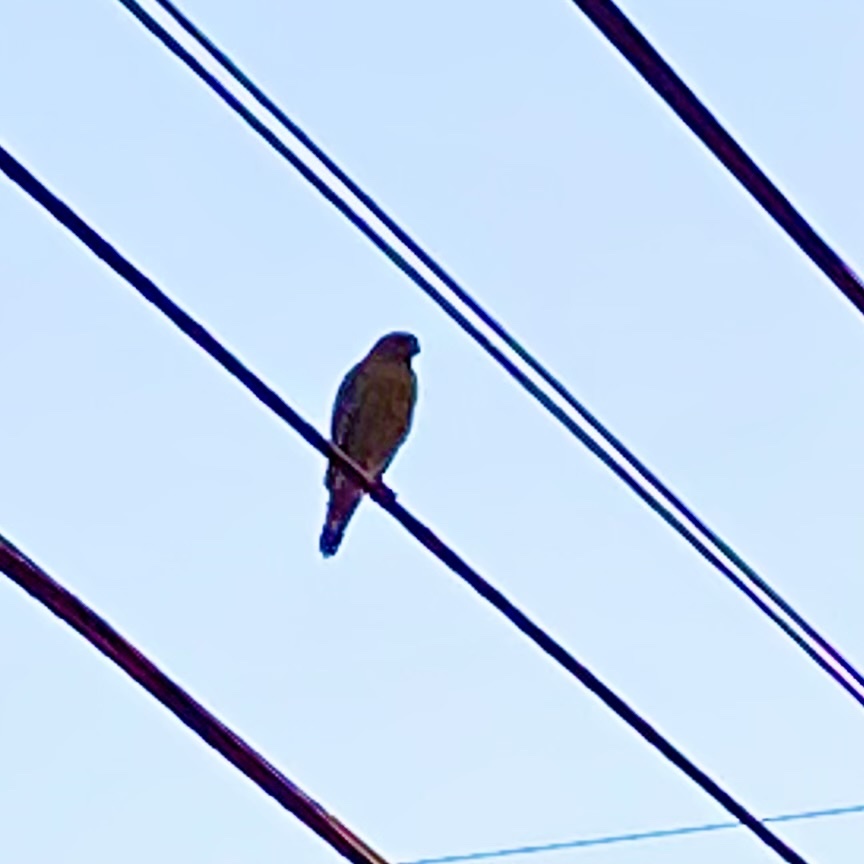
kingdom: Animalia
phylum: Chordata
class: Aves
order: Accipitriformes
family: Accipitridae
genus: Buteo
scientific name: Buteo lineatus
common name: Red-shouldered hawk
